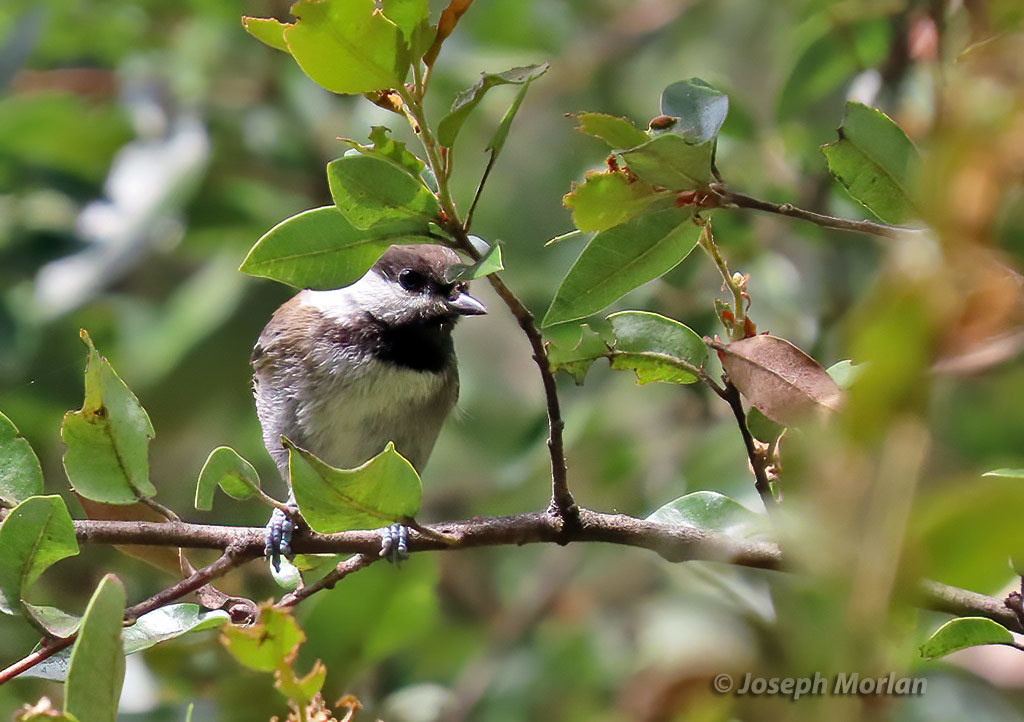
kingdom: Animalia
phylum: Chordata
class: Aves
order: Passeriformes
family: Paridae
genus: Poecile
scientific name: Poecile rufescens
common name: Chestnut-backed chickadee
